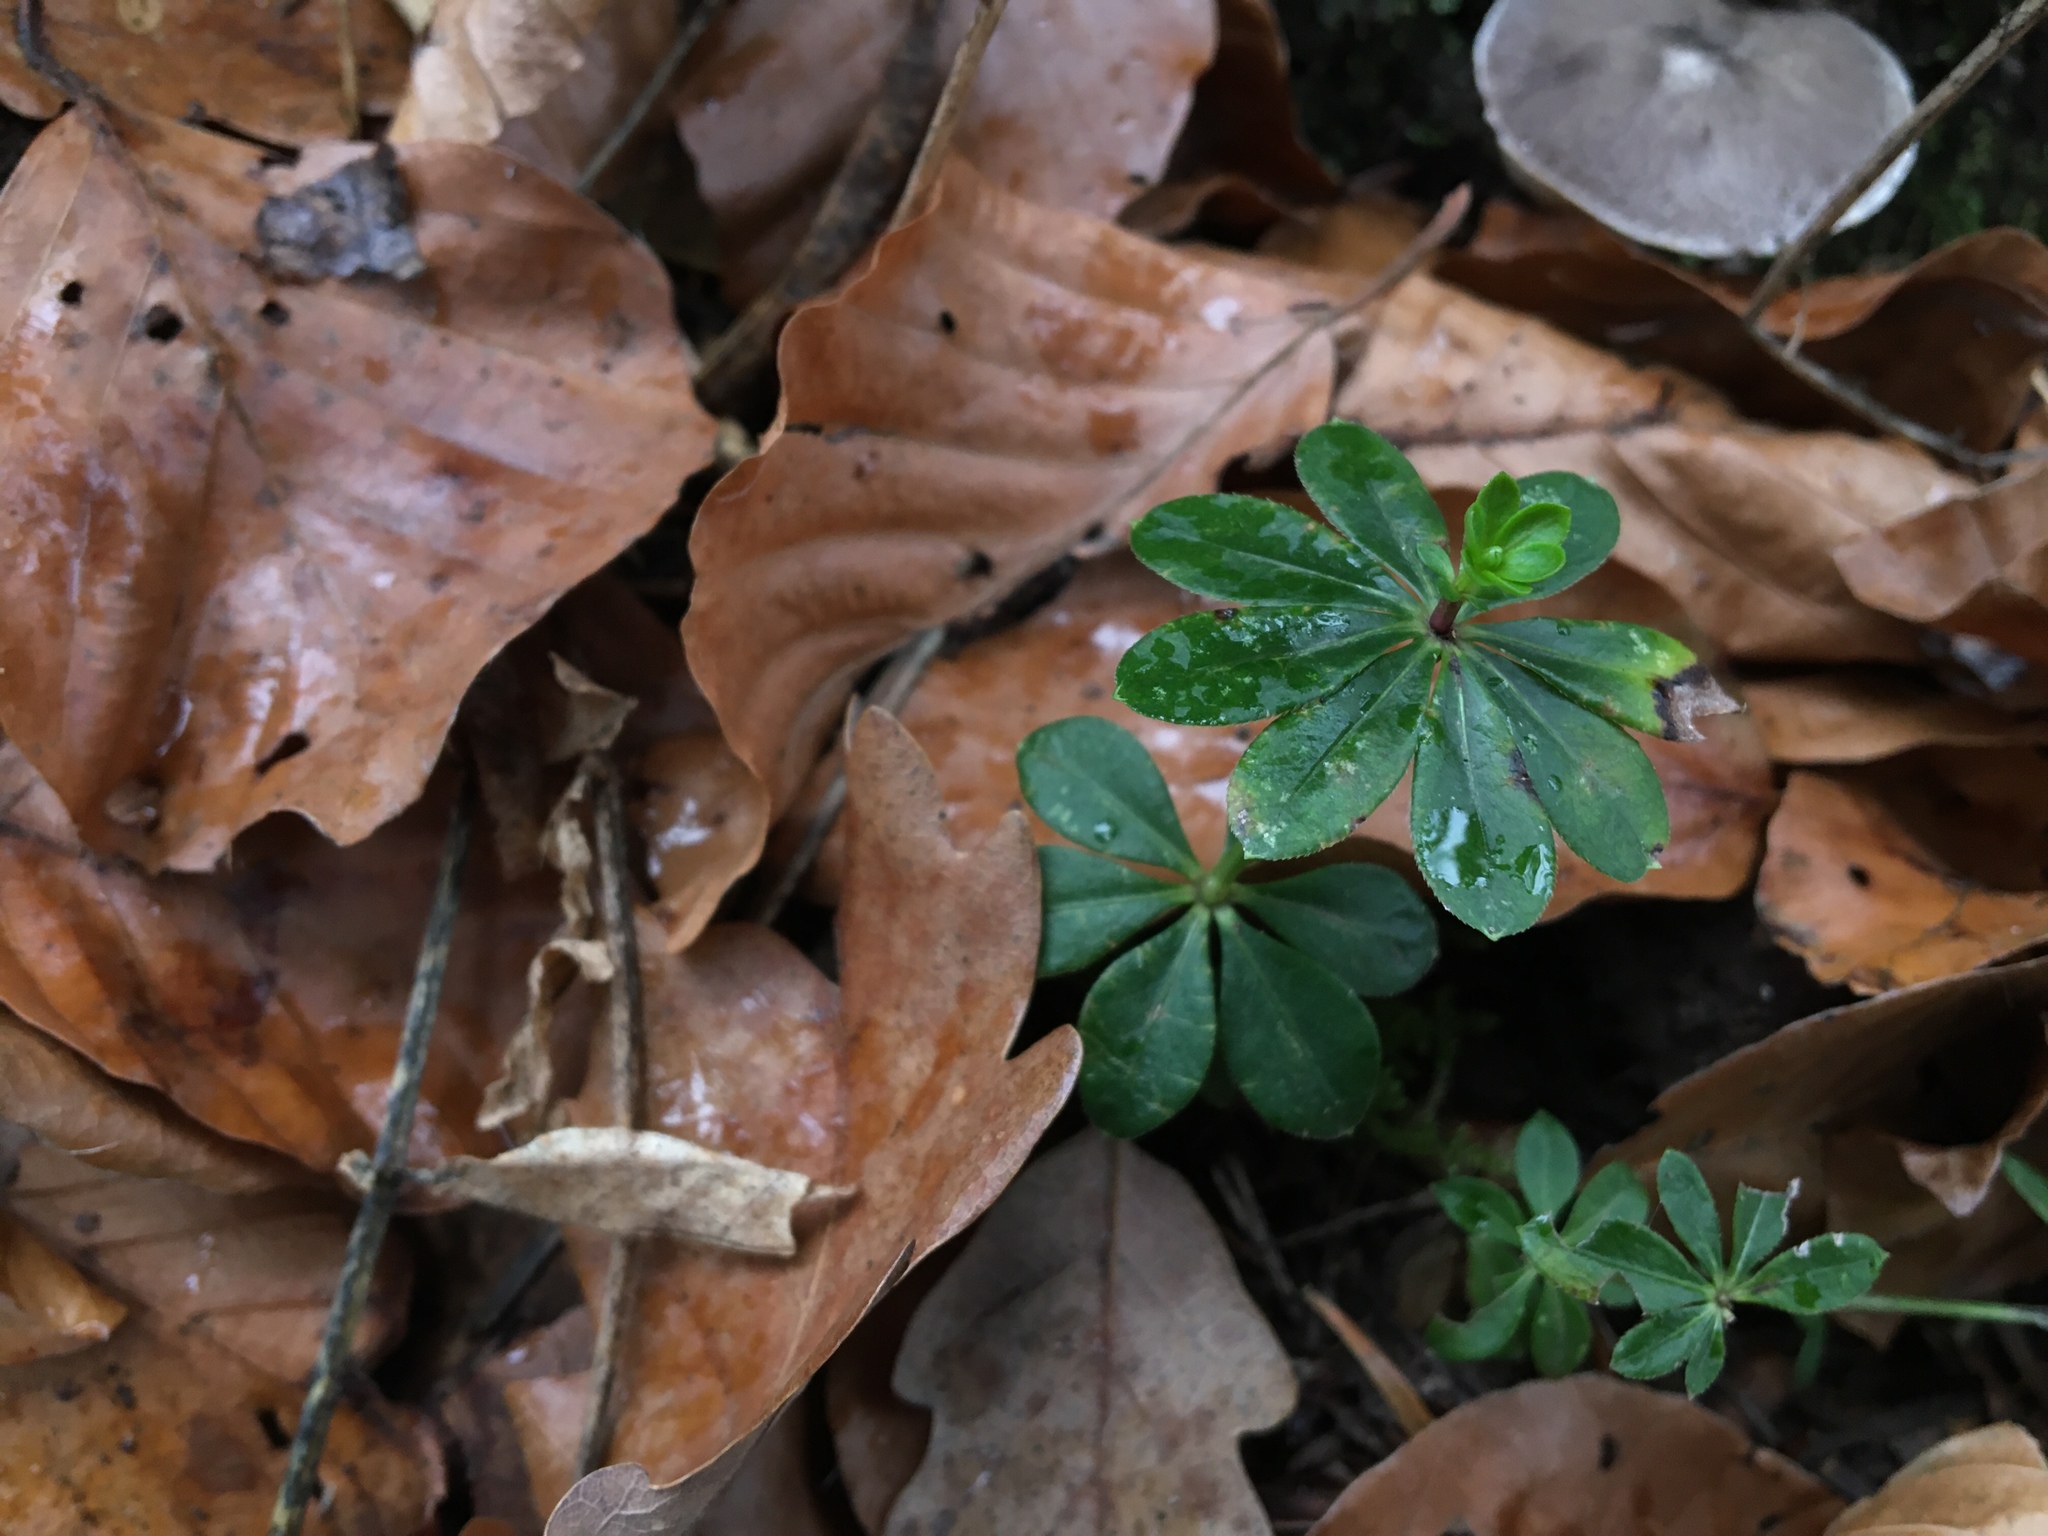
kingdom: Plantae
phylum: Tracheophyta
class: Magnoliopsida
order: Gentianales
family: Rubiaceae
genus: Galium
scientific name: Galium odoratum
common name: Sweet woodruff
